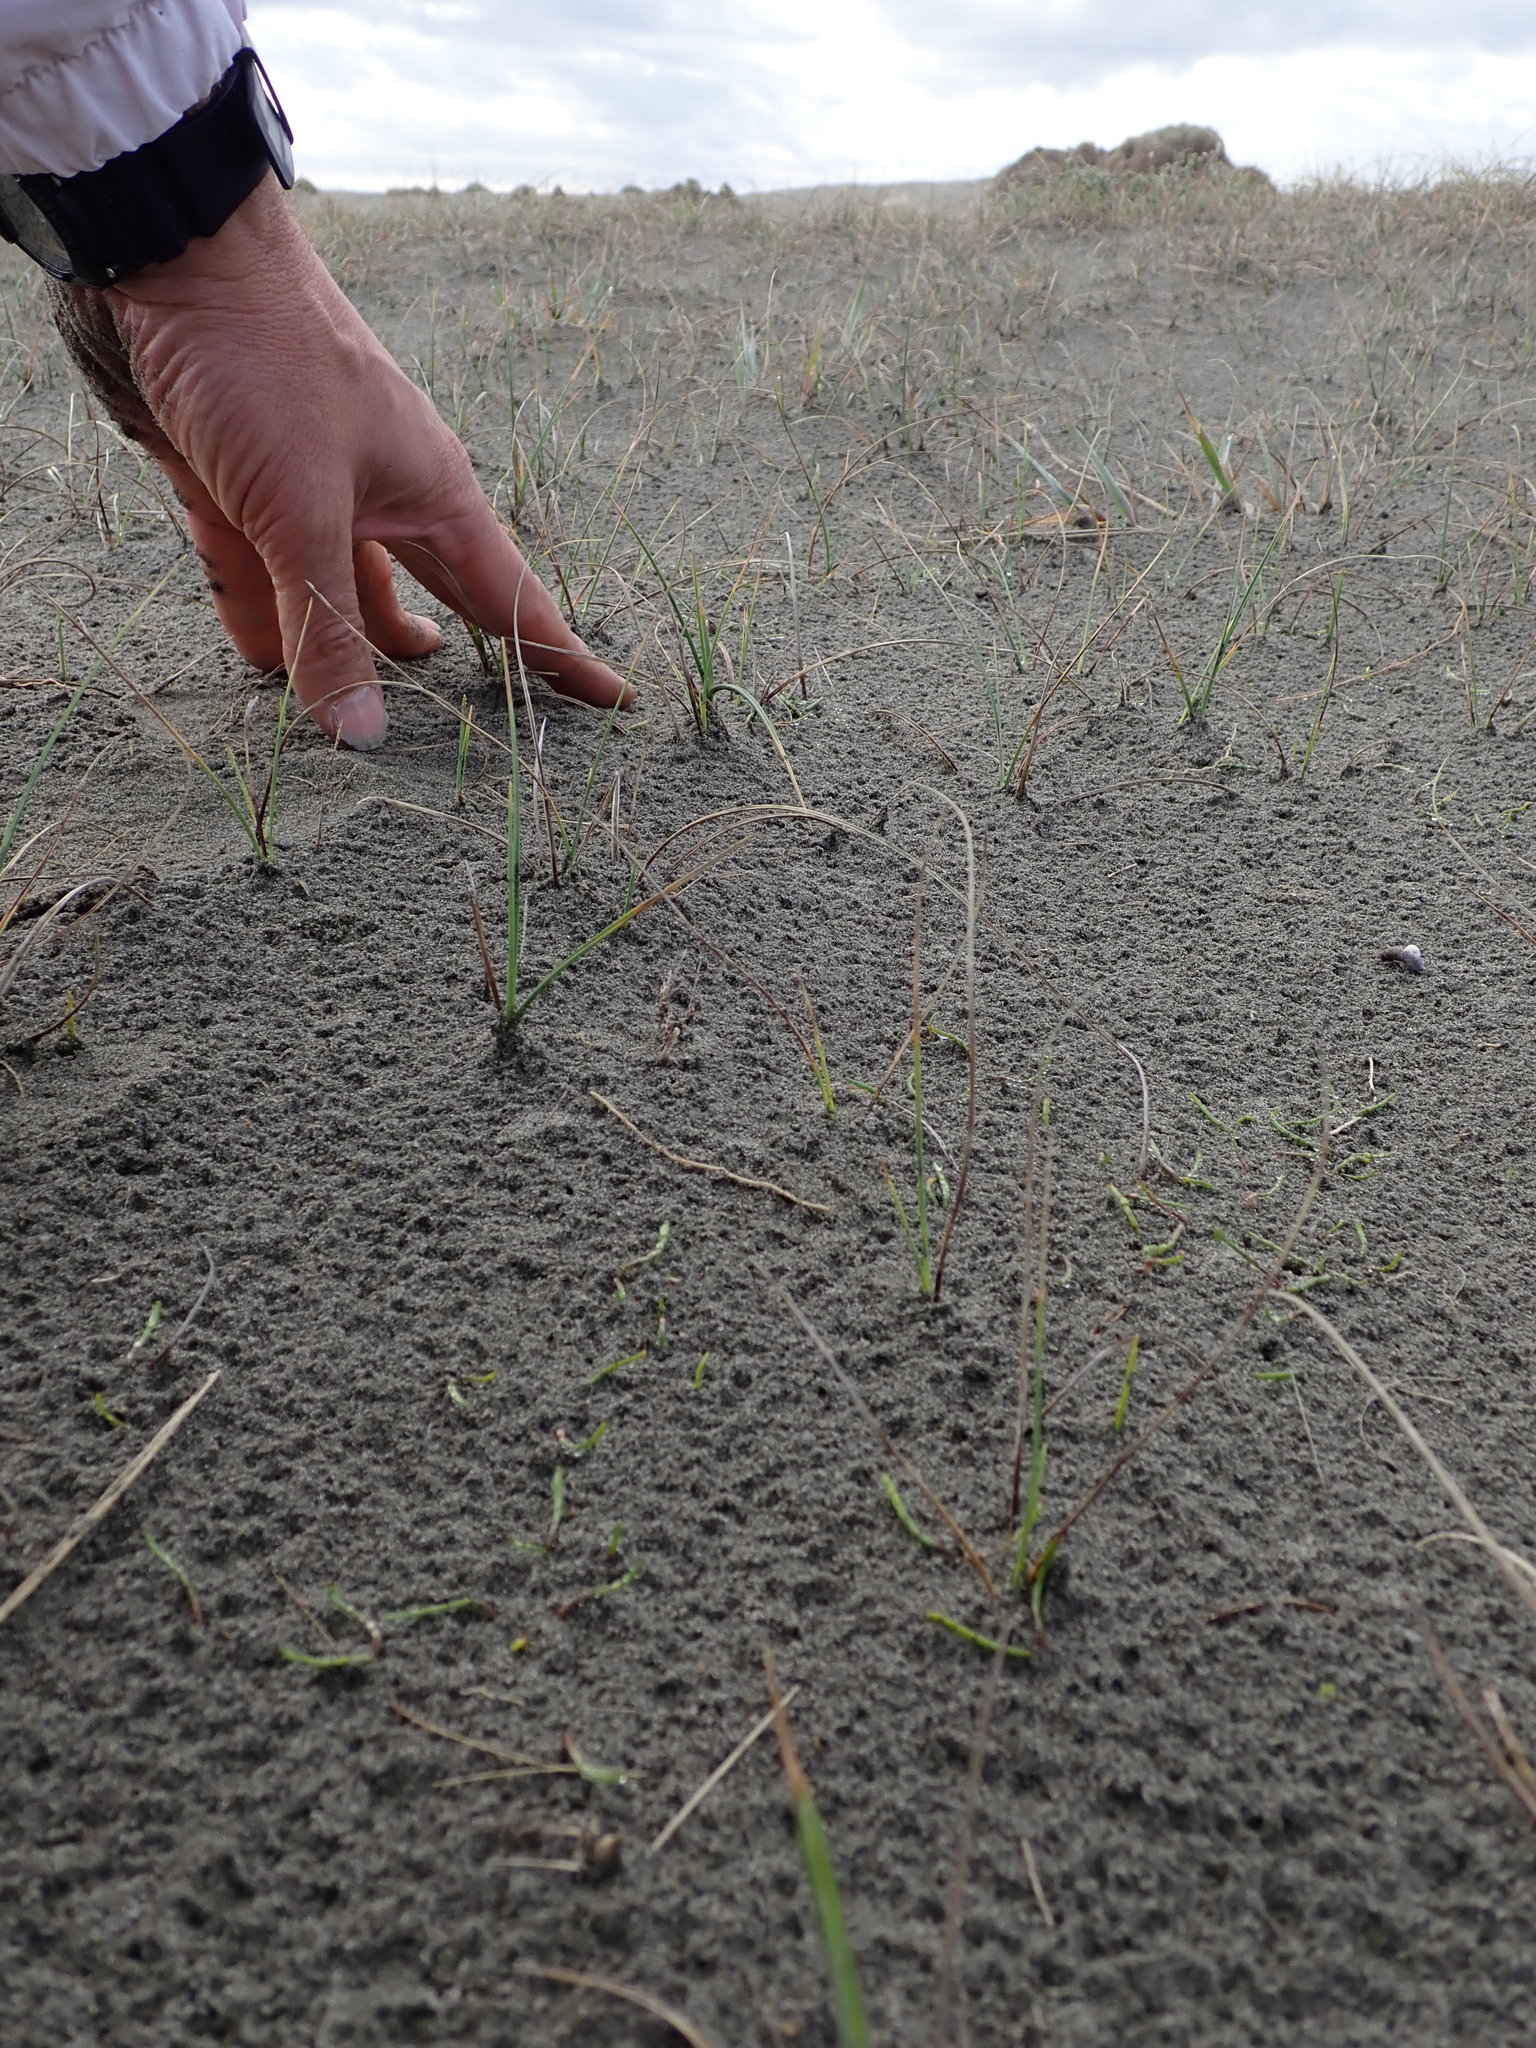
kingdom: Plantae
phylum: Tracheophyta
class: Magnoliopsida
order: Apiales
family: Apiaceae
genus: Lilaeopsis
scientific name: Lilaeopsis novae-zelandiae
